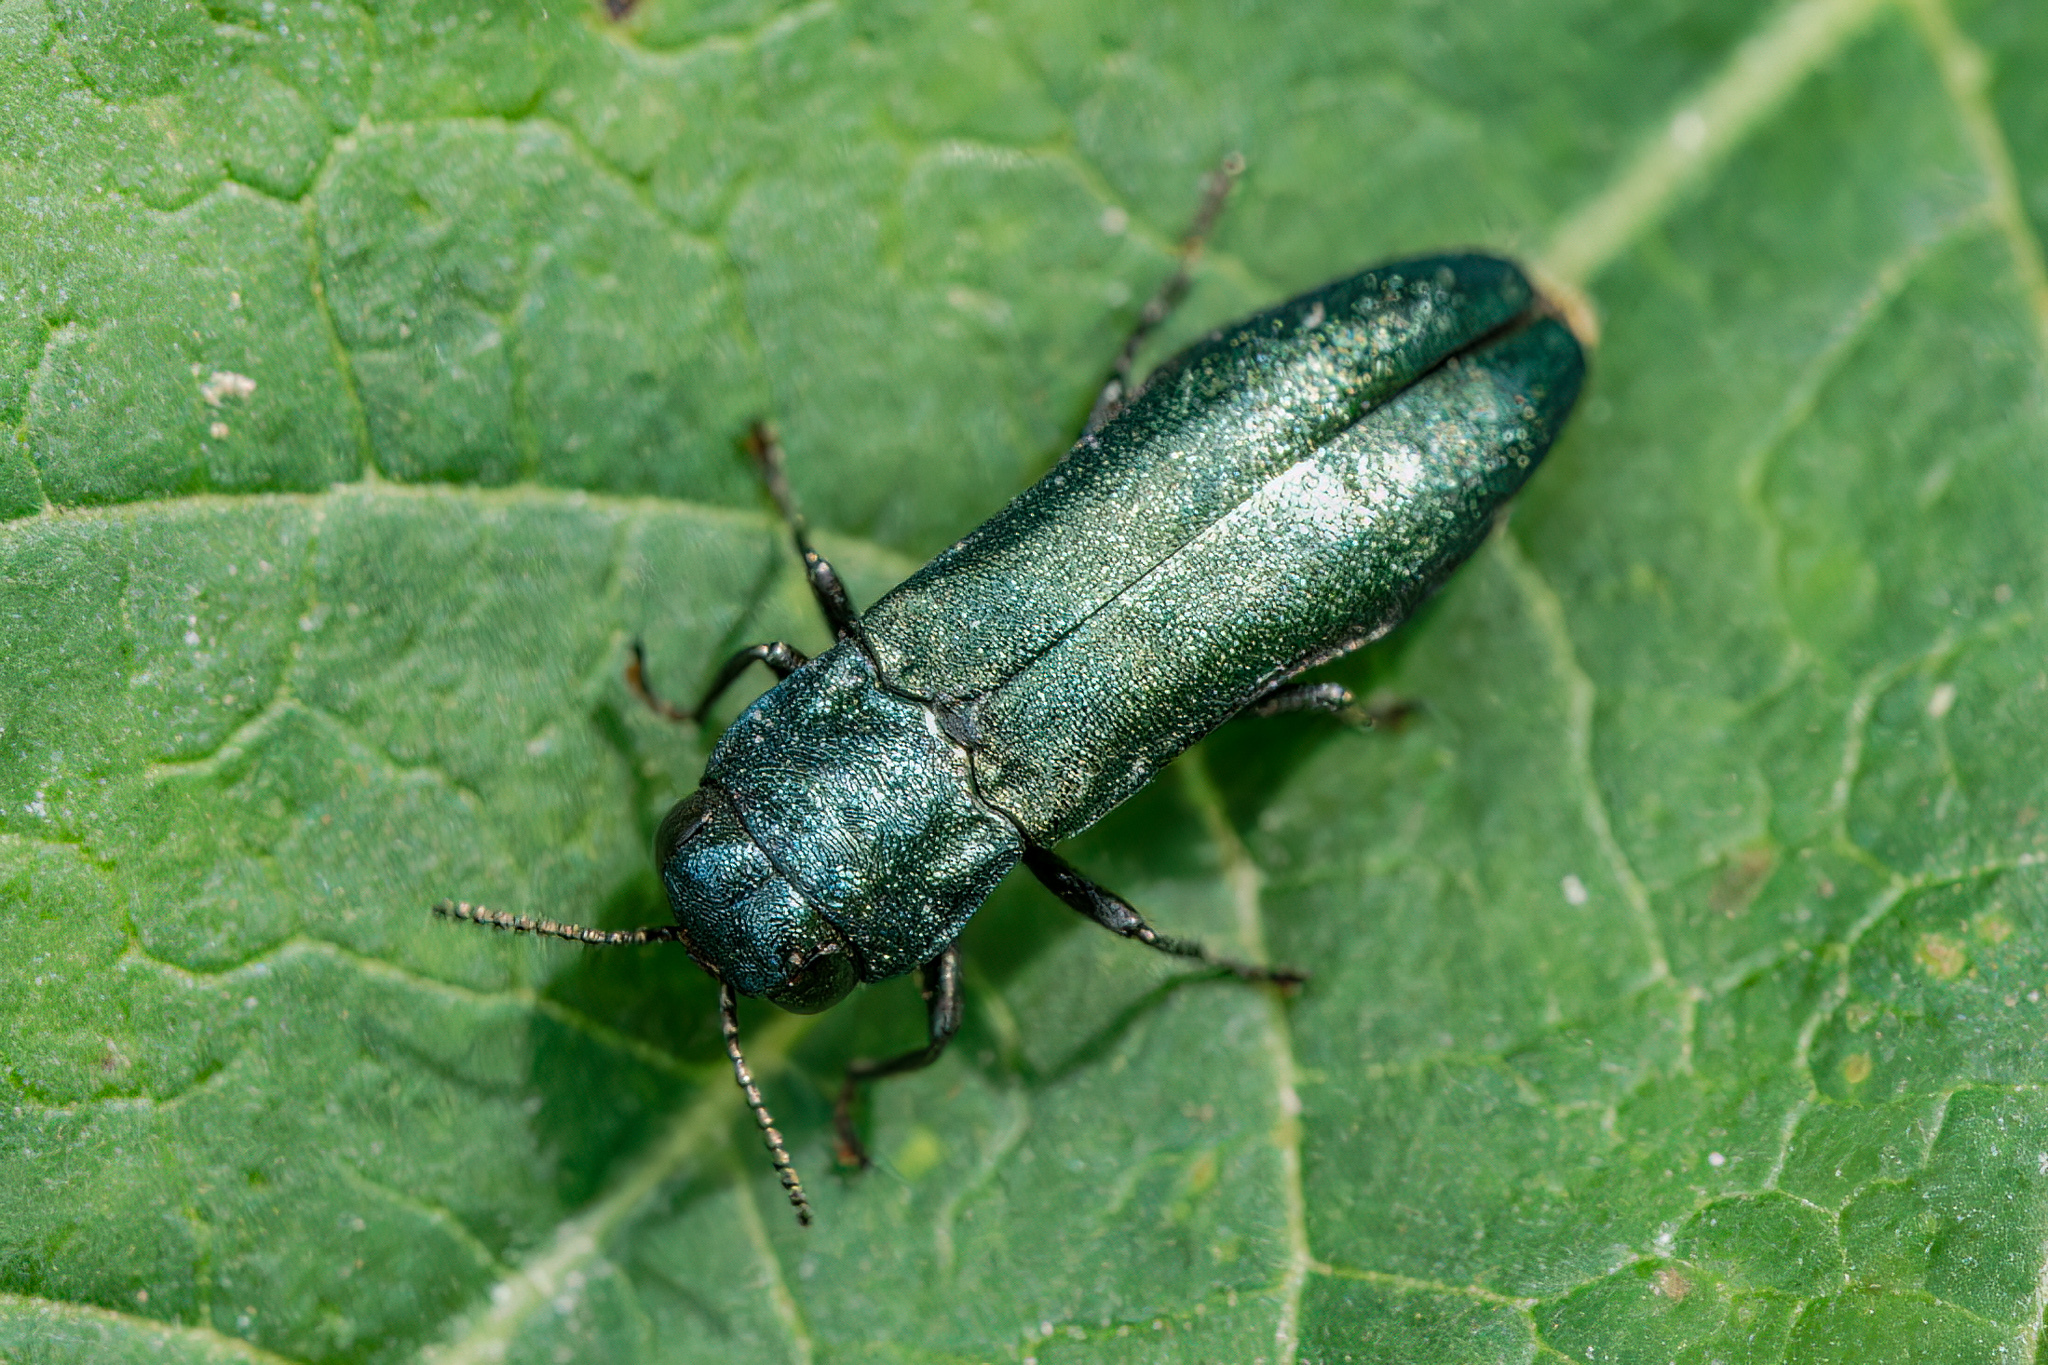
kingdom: Animalia
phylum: Arthropoda
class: Insecta
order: Coleoptera
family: Buprestidae
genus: Agrilus
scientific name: Agrilus cyanescens
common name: Bluish borer beetle
